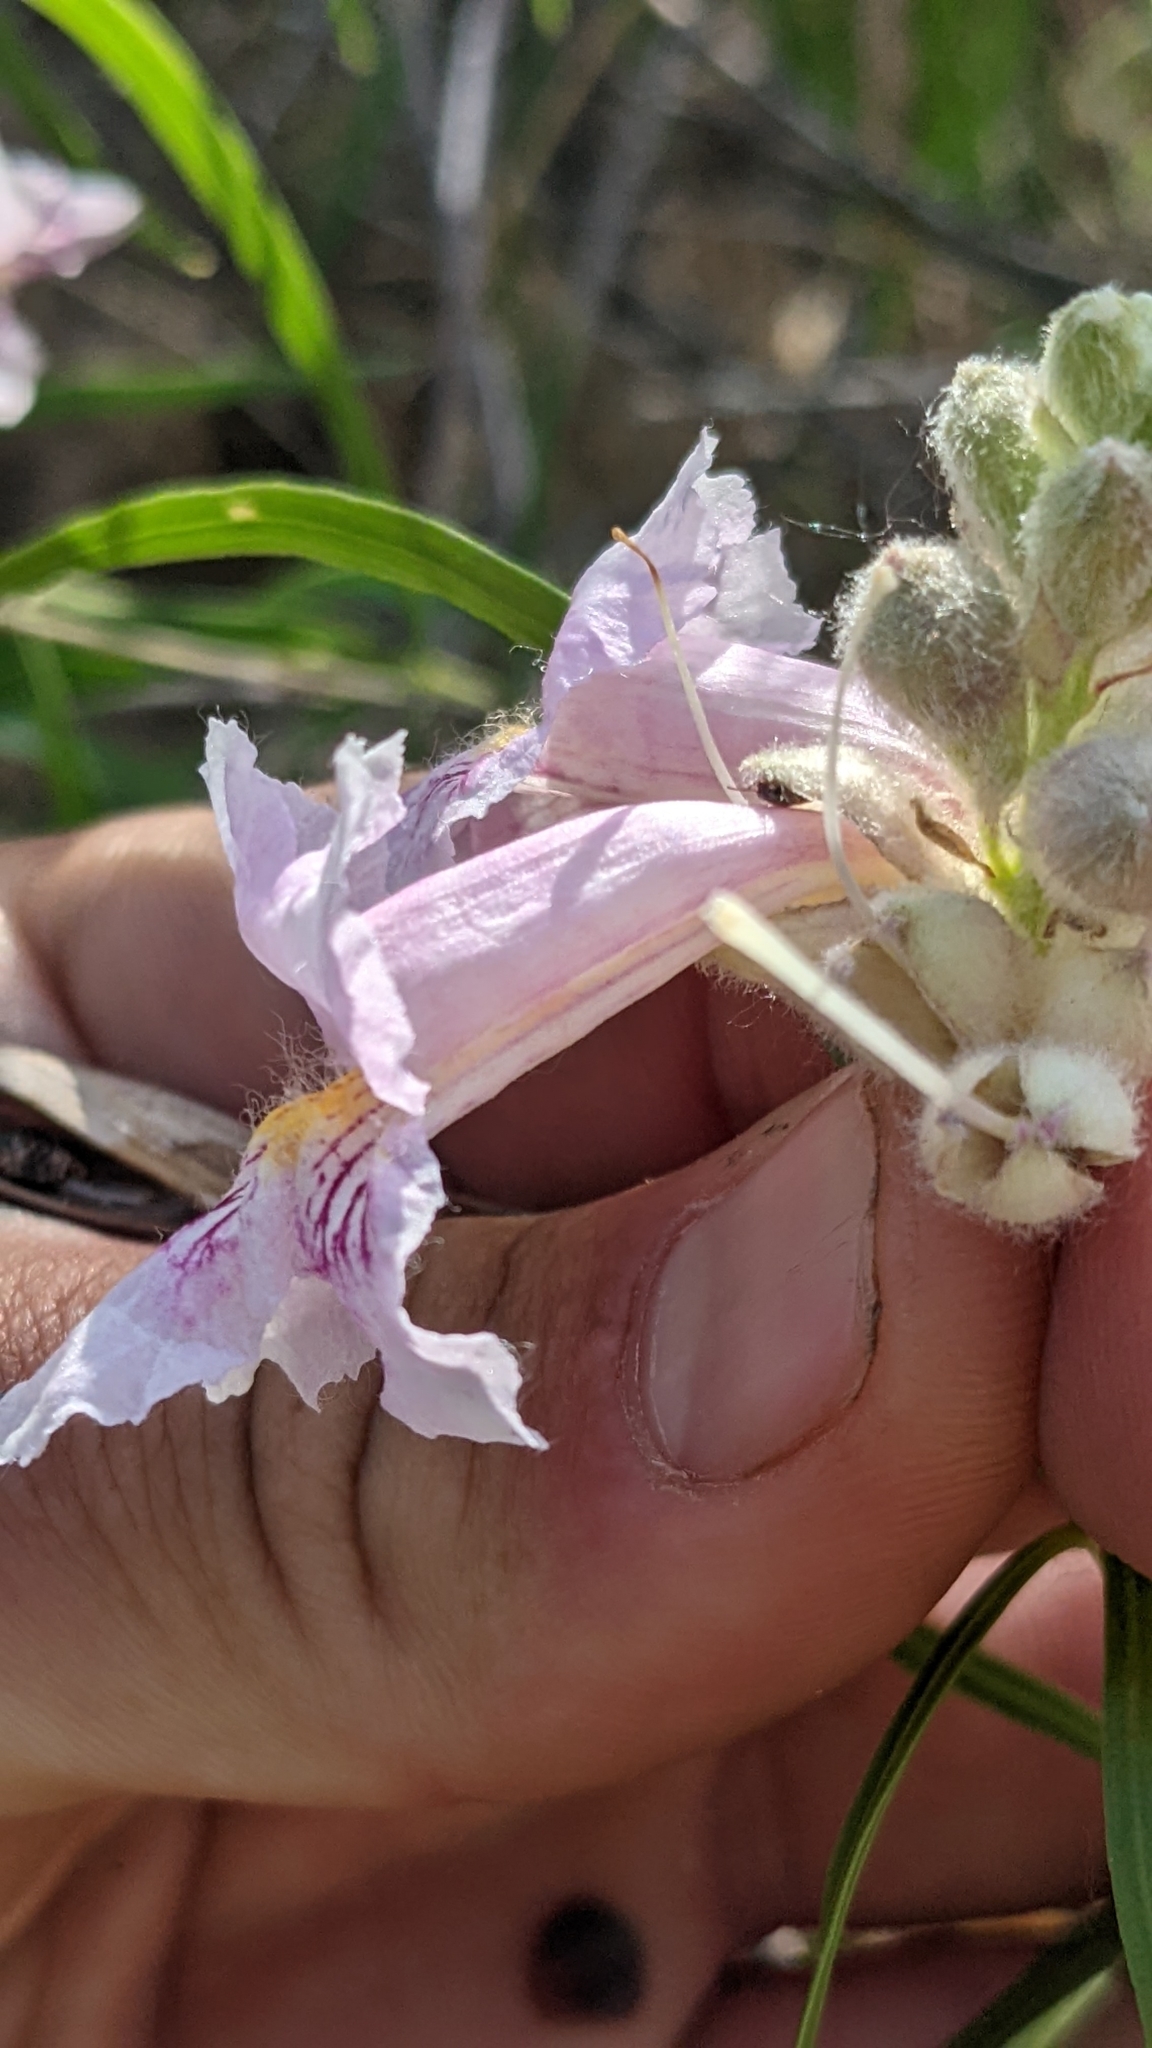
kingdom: Plantae
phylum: Tracheophyta
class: Magnoliopsida
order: Lamiales
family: Bignoniaceae
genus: Chilopsis
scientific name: Chilopsis linearis
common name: Desert-willow
